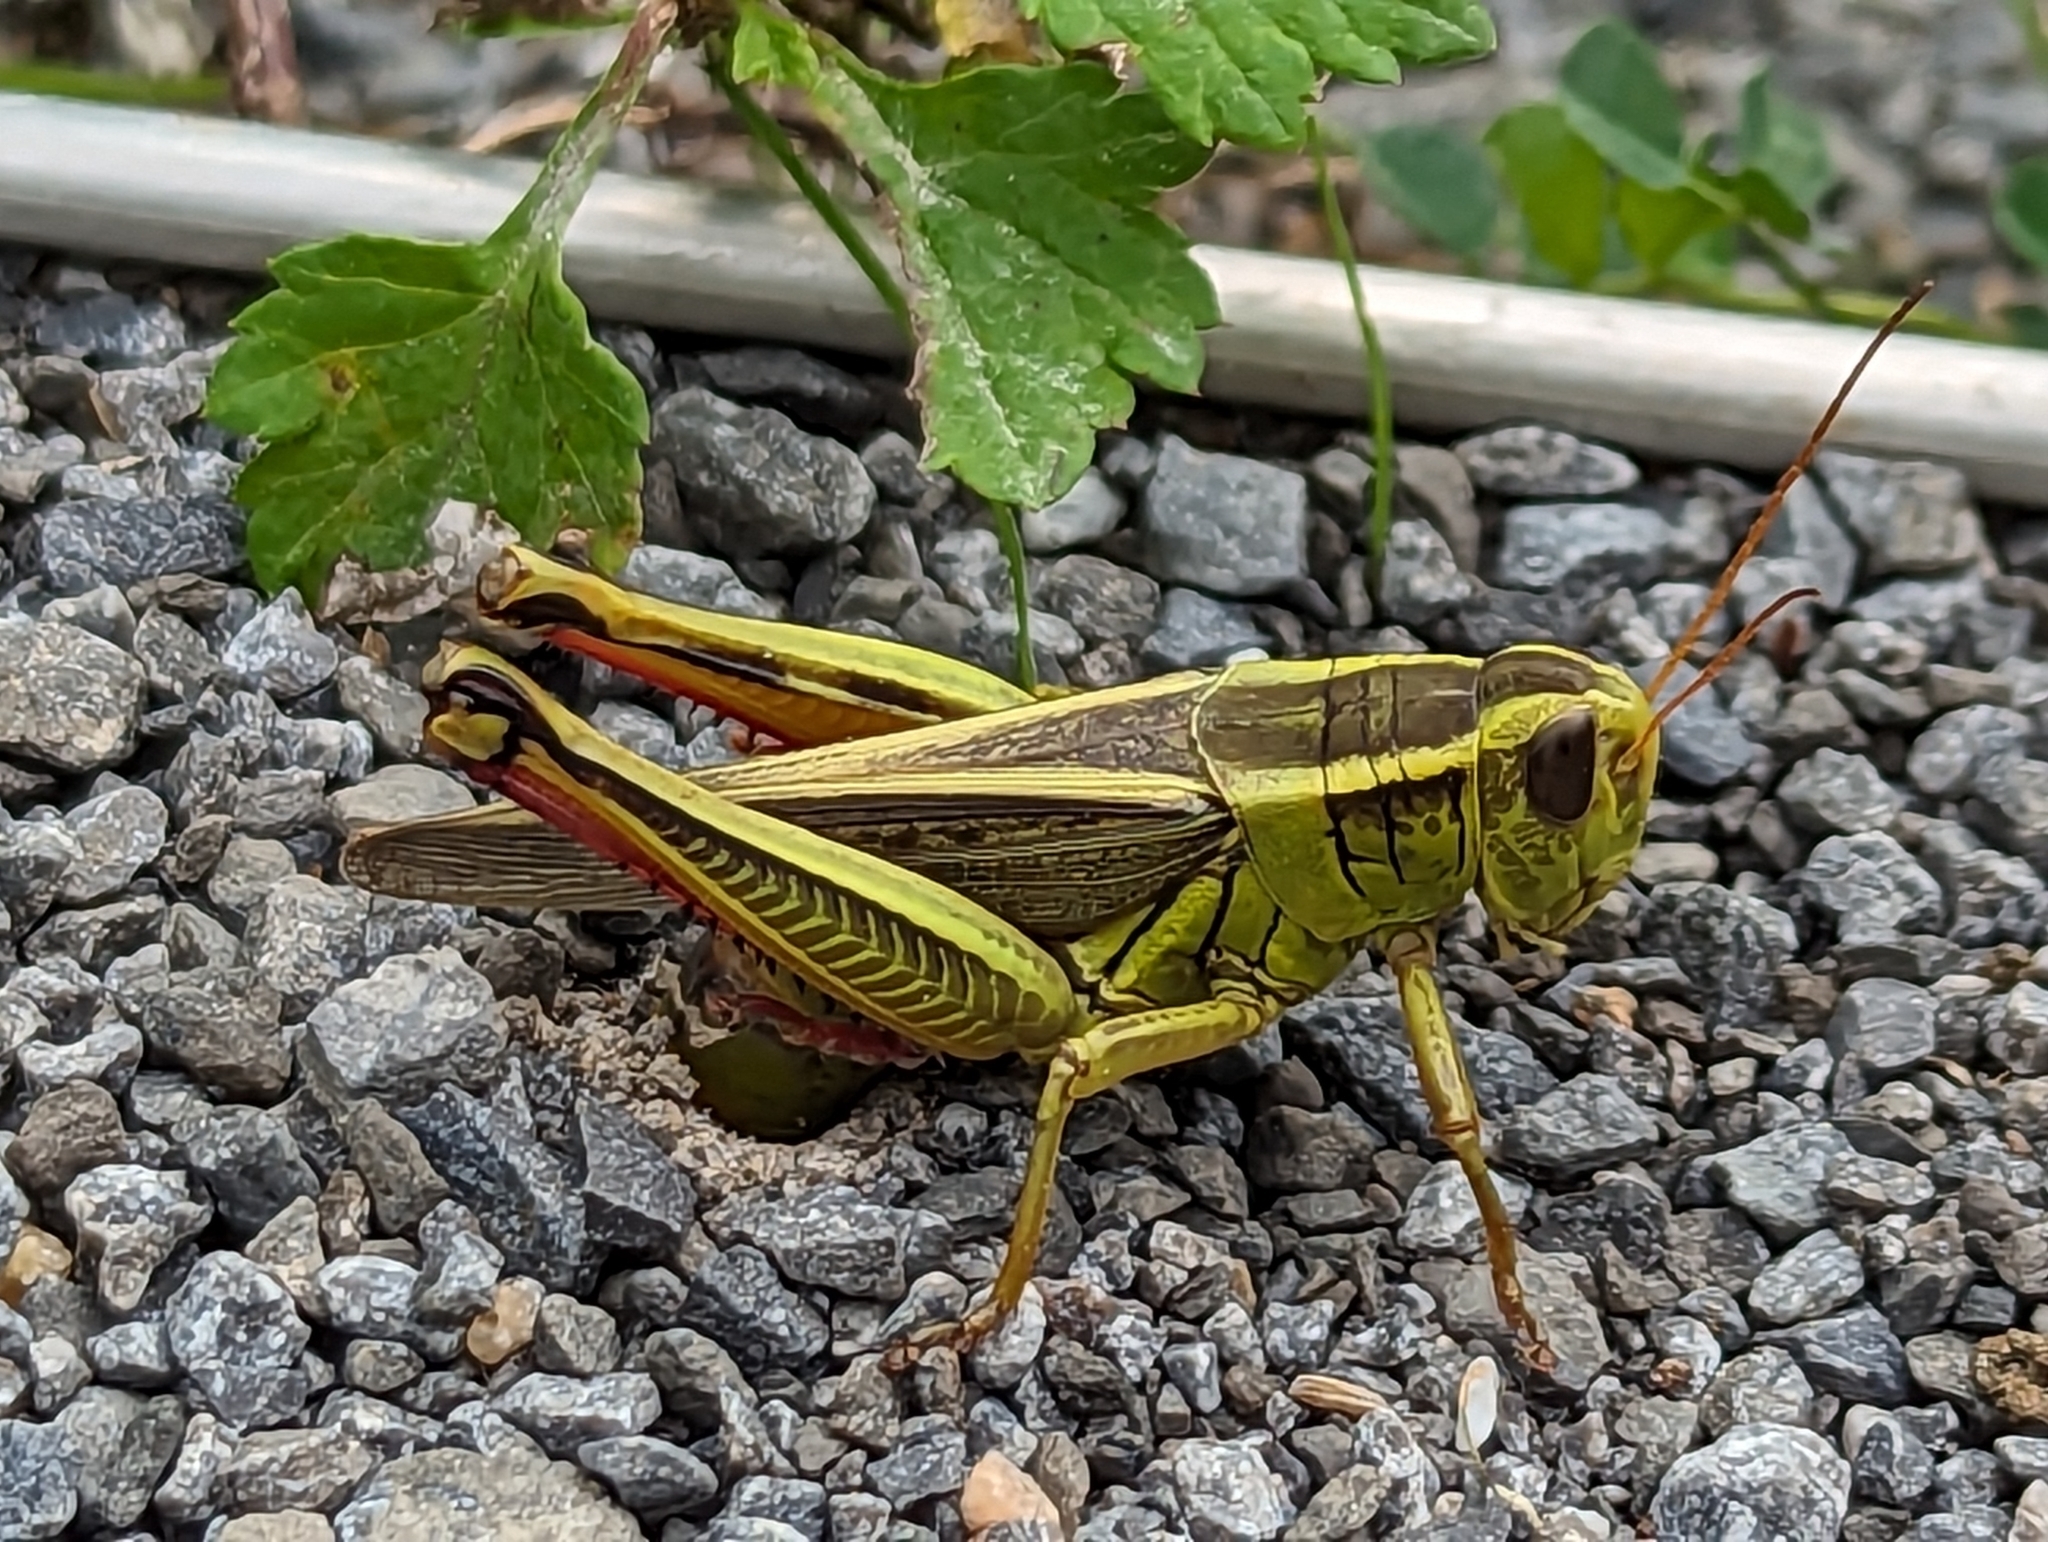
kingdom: Animalia
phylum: Arthropoda
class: Insecta
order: Orthoptera
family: Acrididae
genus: Melanoplus
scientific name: Melanoplus bivittatus
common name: Two-striped grasshopper
